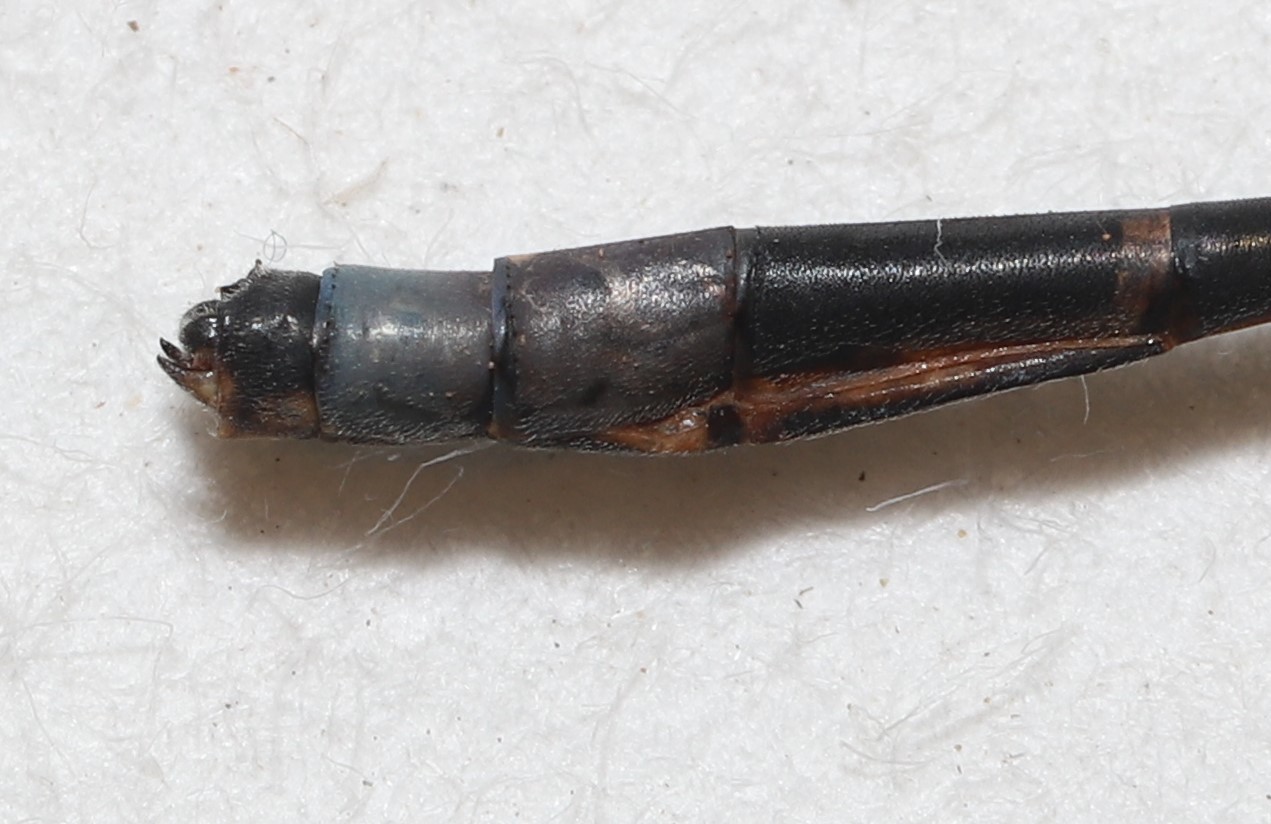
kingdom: Animalia
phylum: Arthropoda
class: Insecta
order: Odonata
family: Coenagrionidae
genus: Enallagma
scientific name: Enallagma boreale
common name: Boreal bluet
